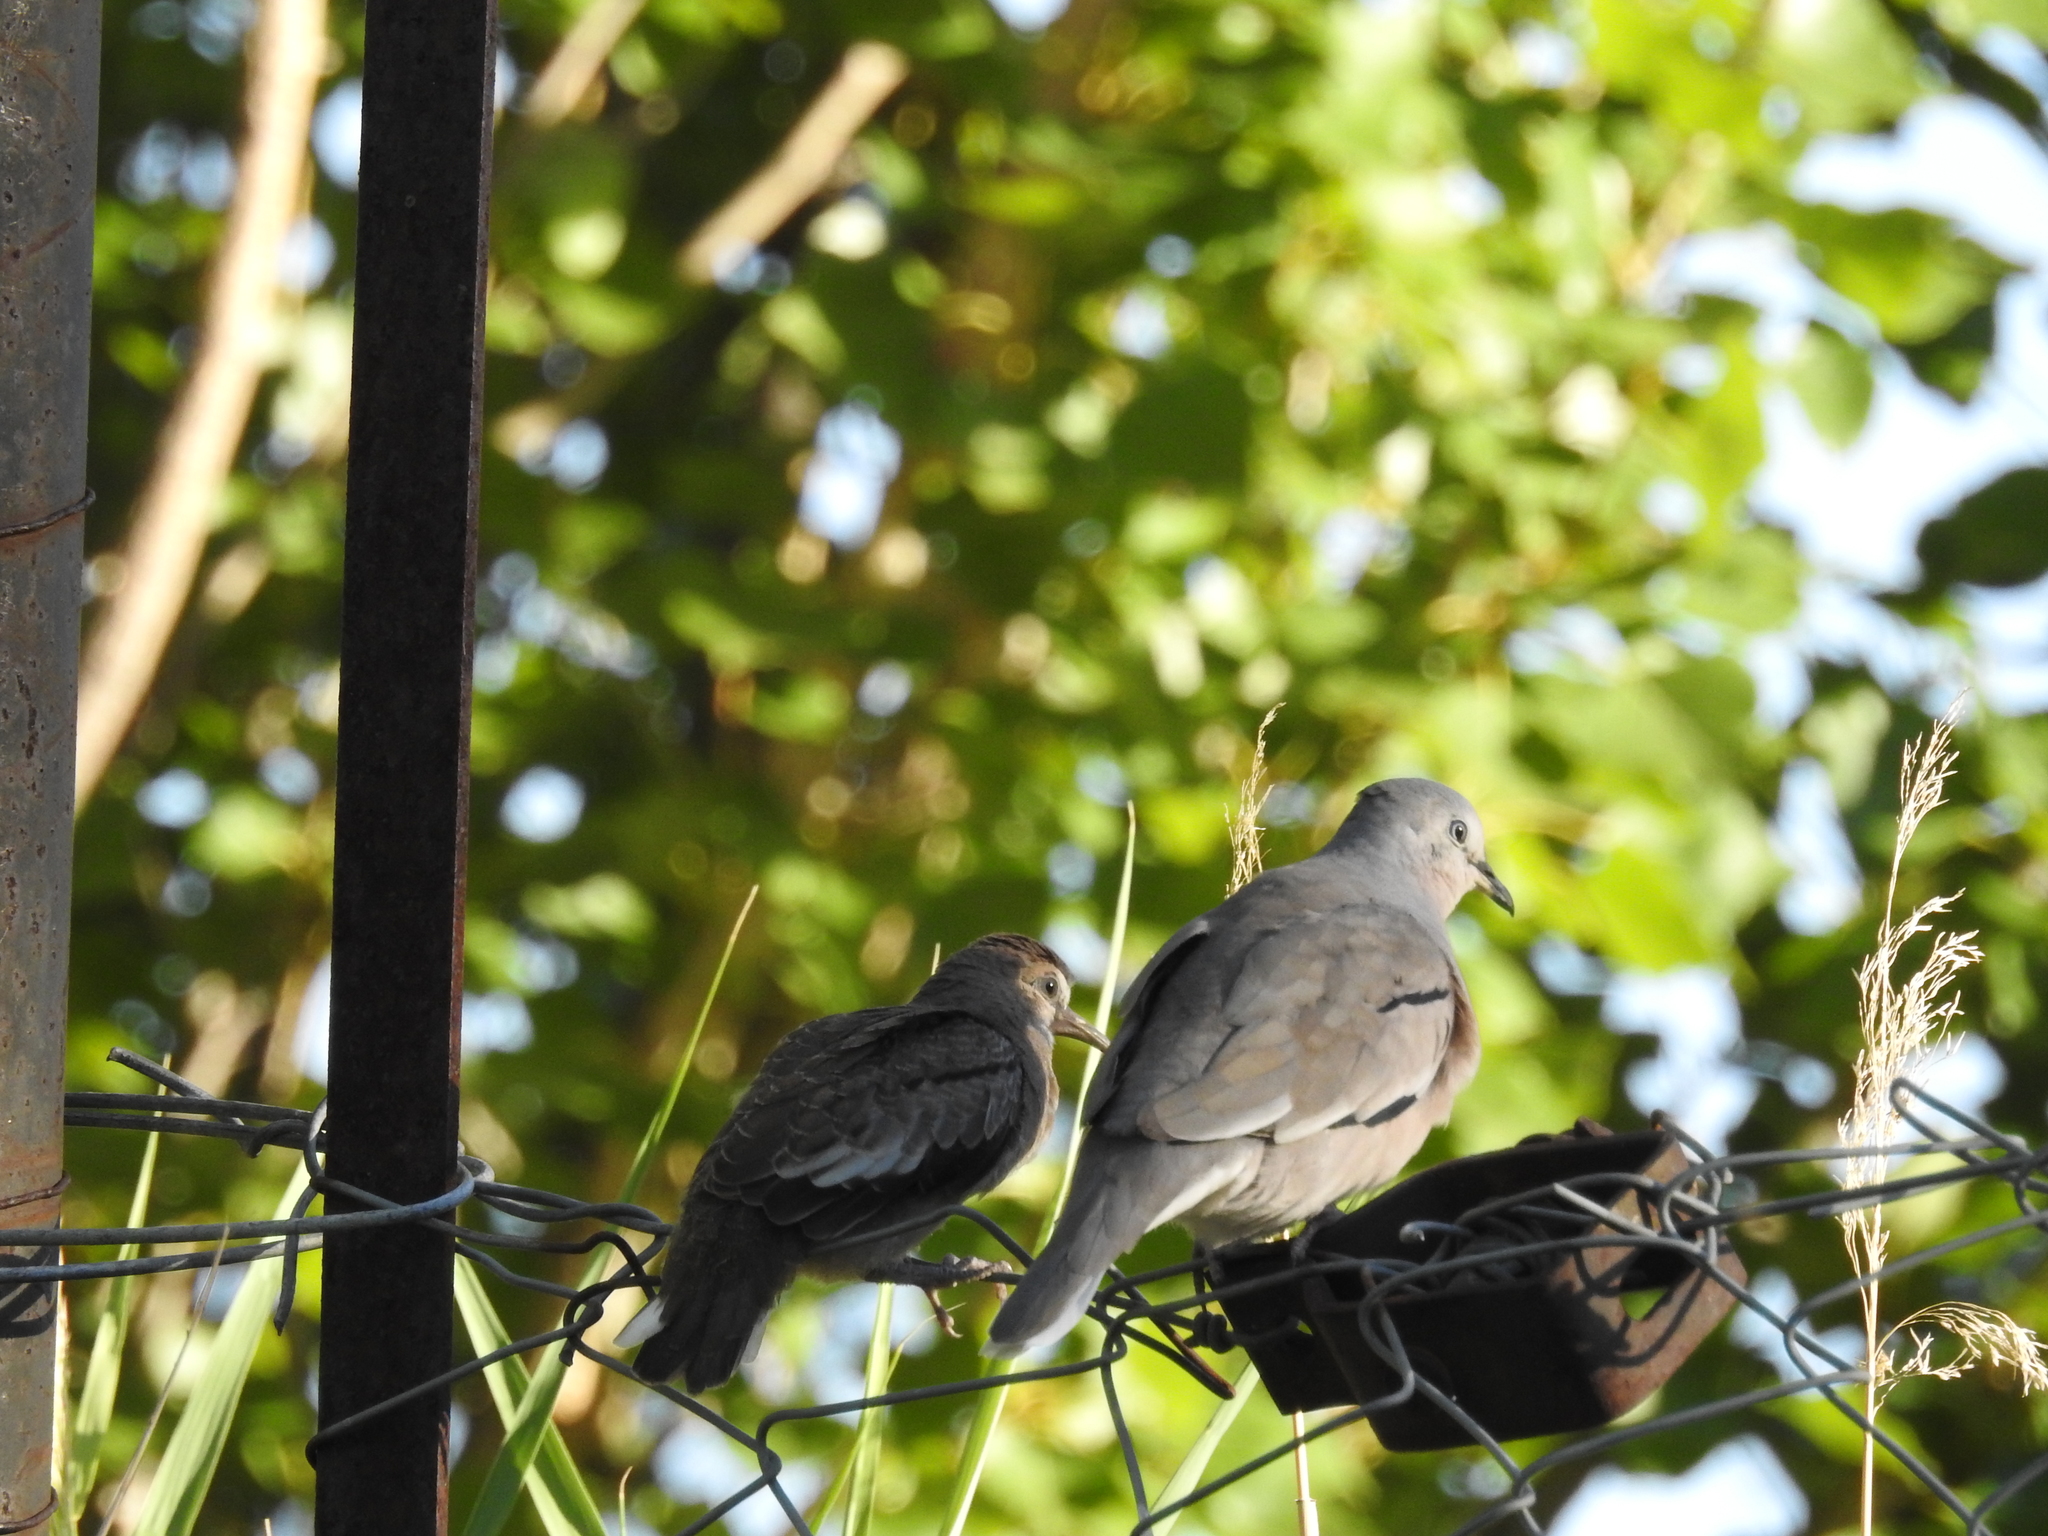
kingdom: Animalia
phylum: Chordata
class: Aves
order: Columbiformes
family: Columbidae
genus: Columbina
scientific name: Columbina picui
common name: Picui ground dove
